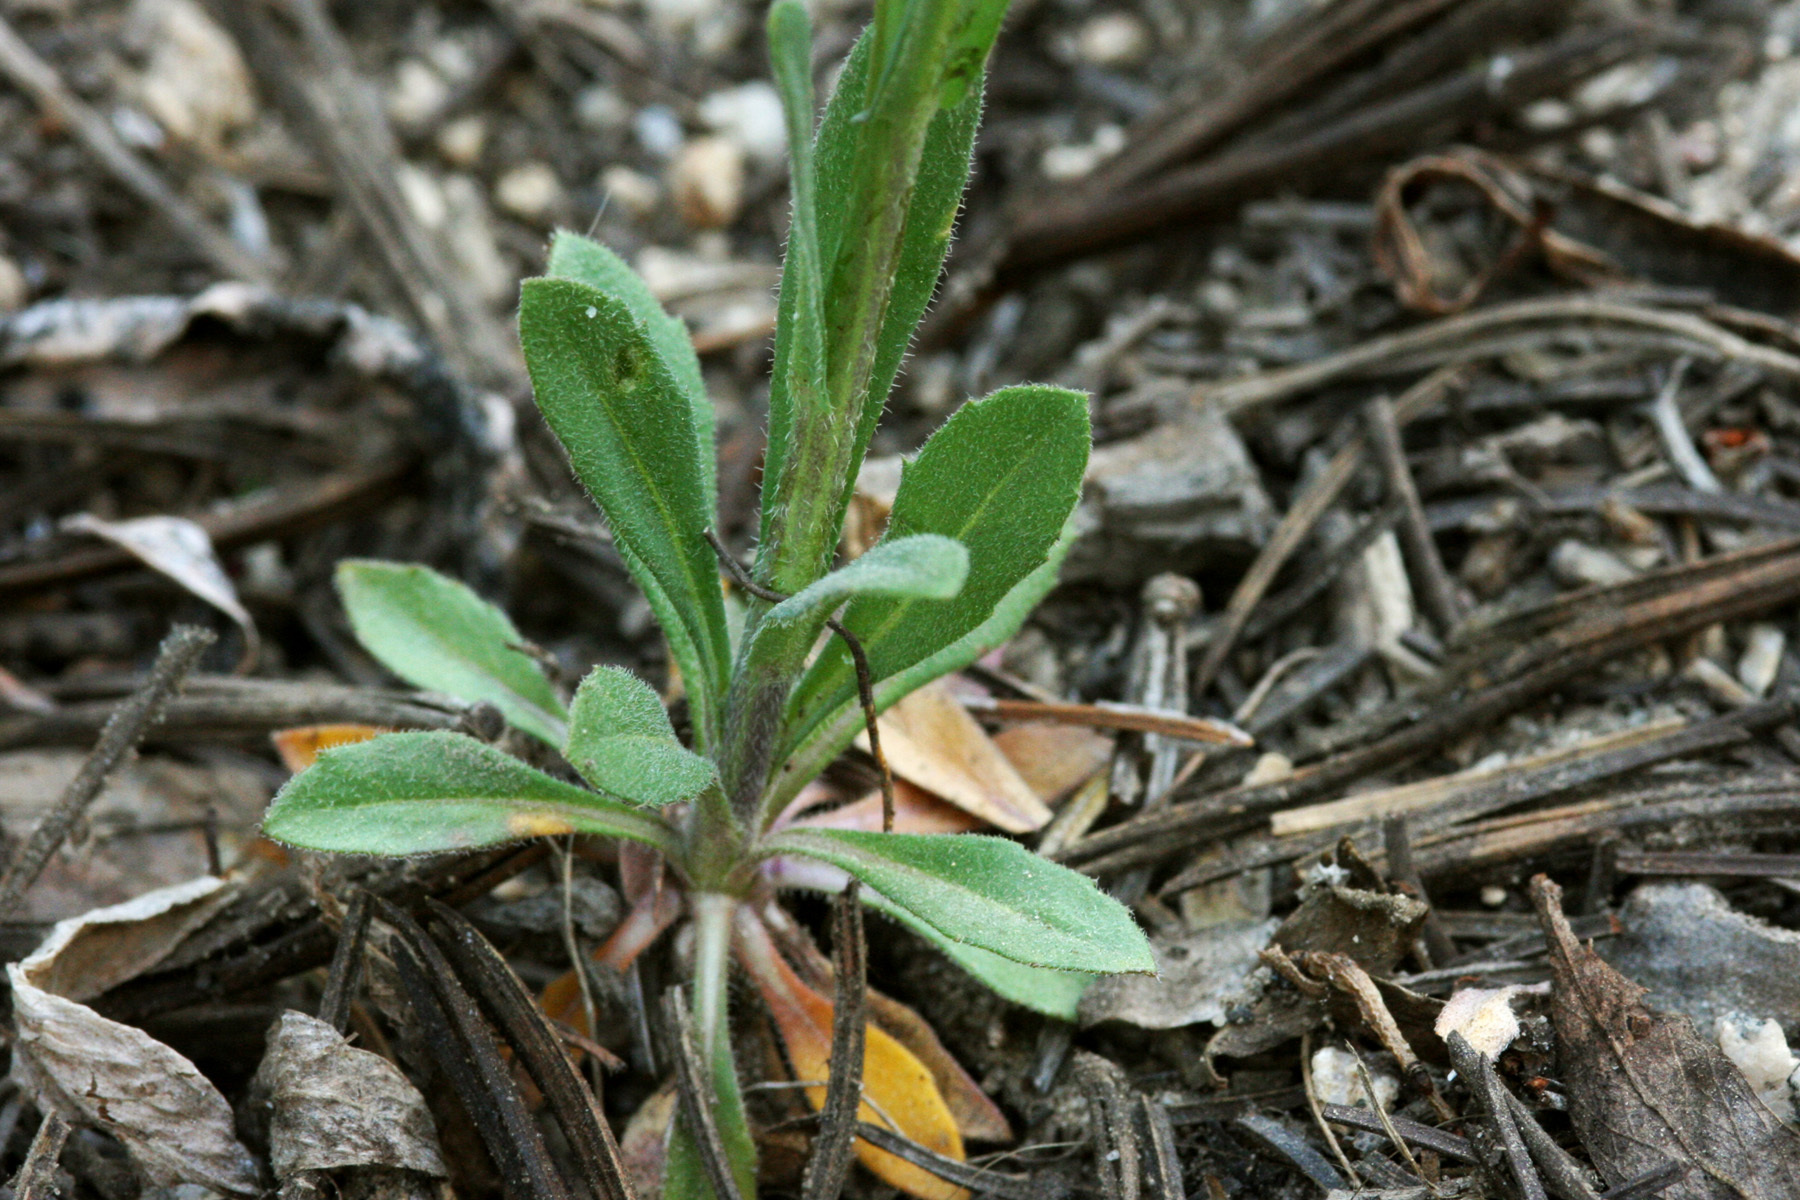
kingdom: Plantae
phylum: Tracheophyta
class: Magnoliopsida
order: Brassicales
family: Brassicaceae
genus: Boechera
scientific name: Boechera tularensis
